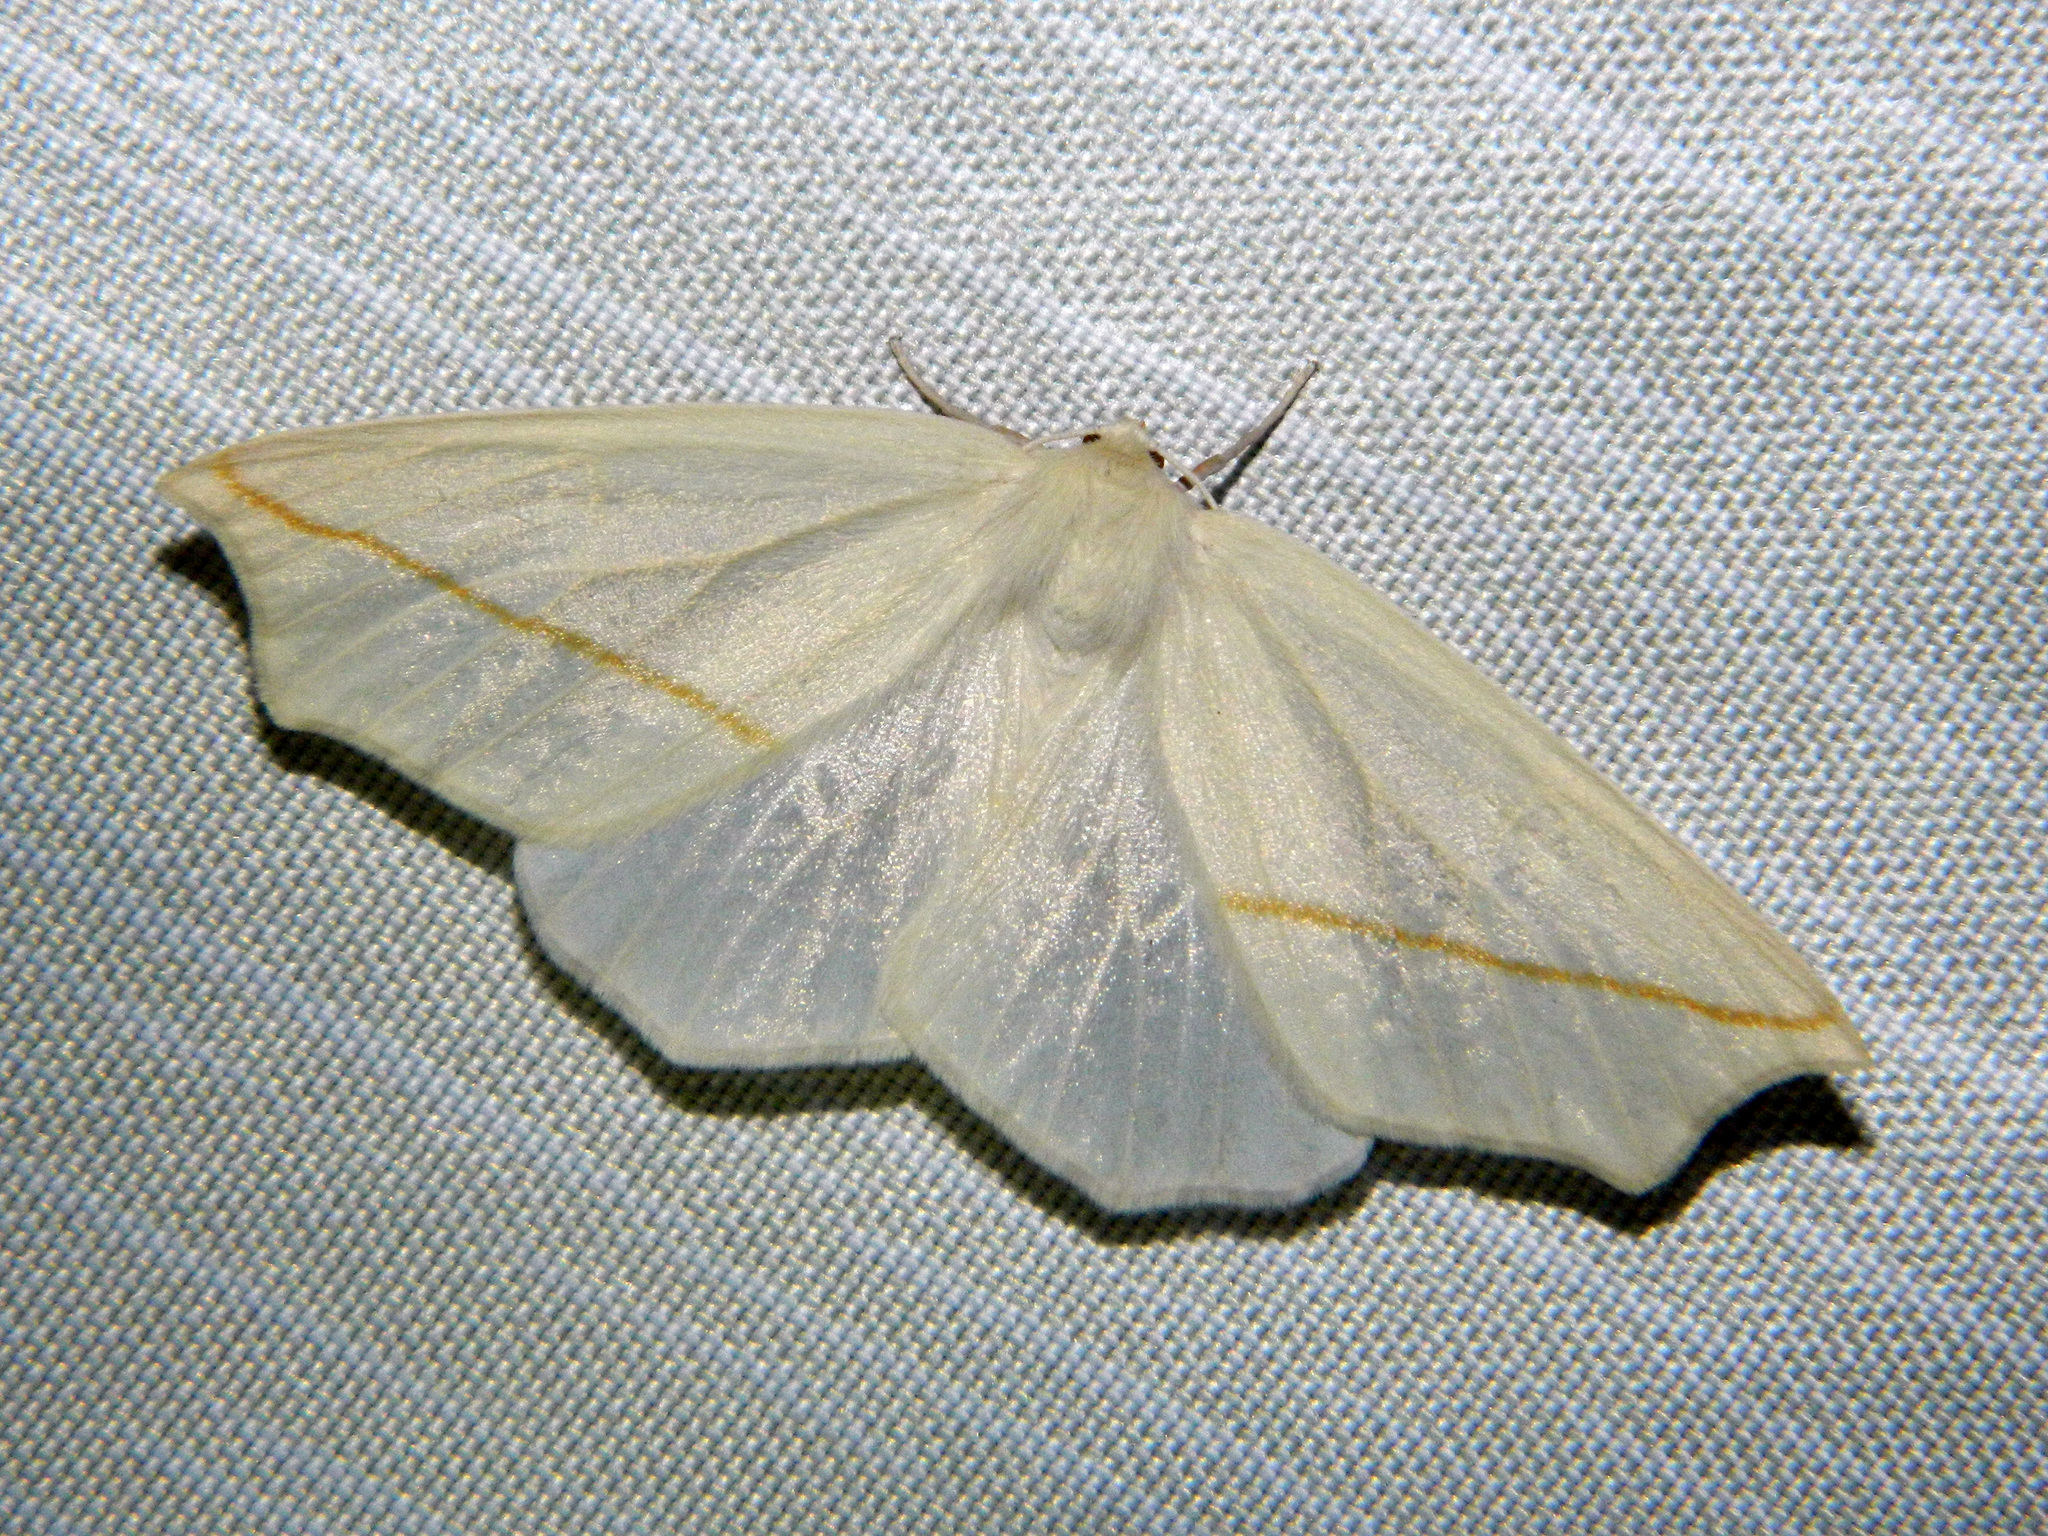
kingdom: Animalia
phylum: Arthropoda
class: Insecta
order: Lepidoptera
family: Geometridae
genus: Tetracis
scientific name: Tetracis cachexiata
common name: White slant-line
